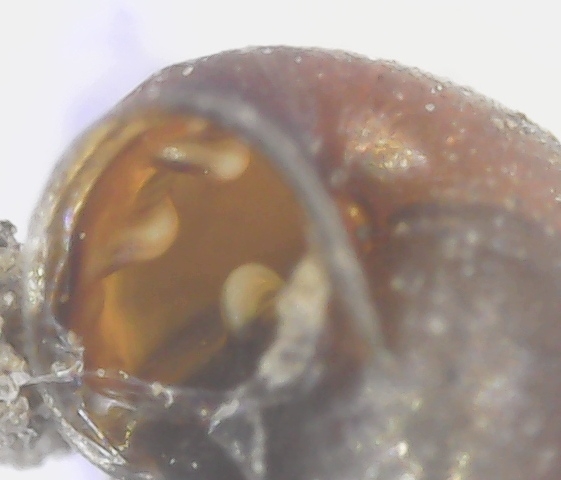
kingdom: Animalia
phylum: Mollusca
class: Gastropoda
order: Stylommatophora
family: Vertiginidae
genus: Vertigo
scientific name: Vertigo pygmaea
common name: Common whorl snail
